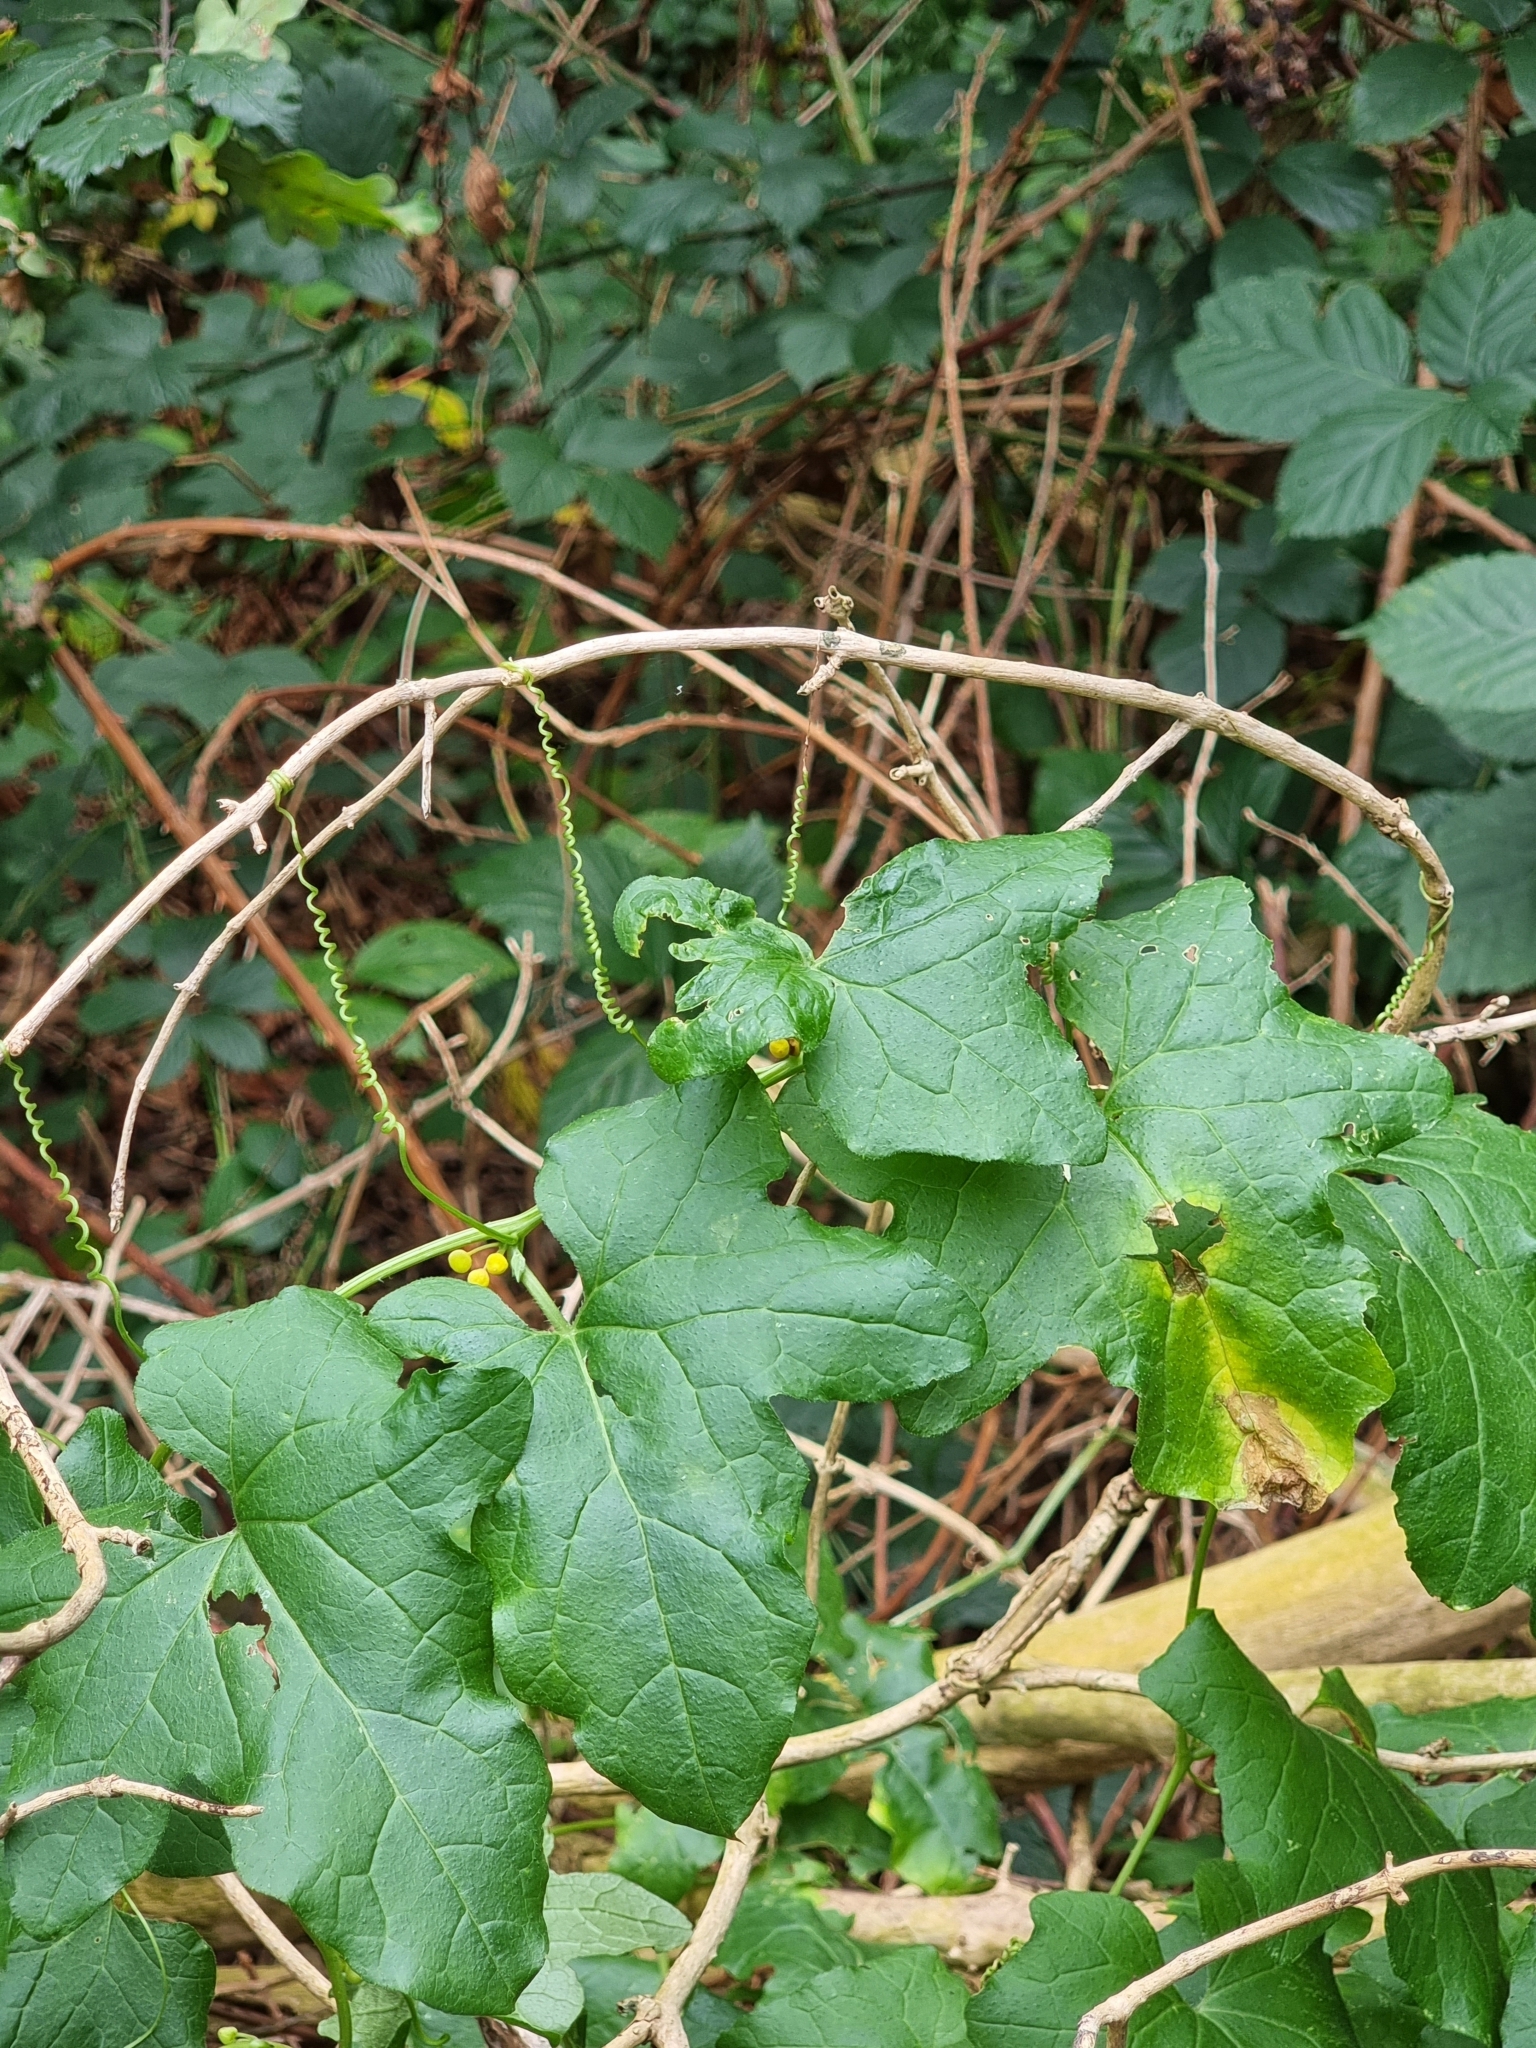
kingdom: Plantae
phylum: Tracheophyta
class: Magnoliopsida
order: Cucurbitales
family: Cucurbitaceae
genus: Bryonia
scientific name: Bryonia dioica
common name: White bryony
